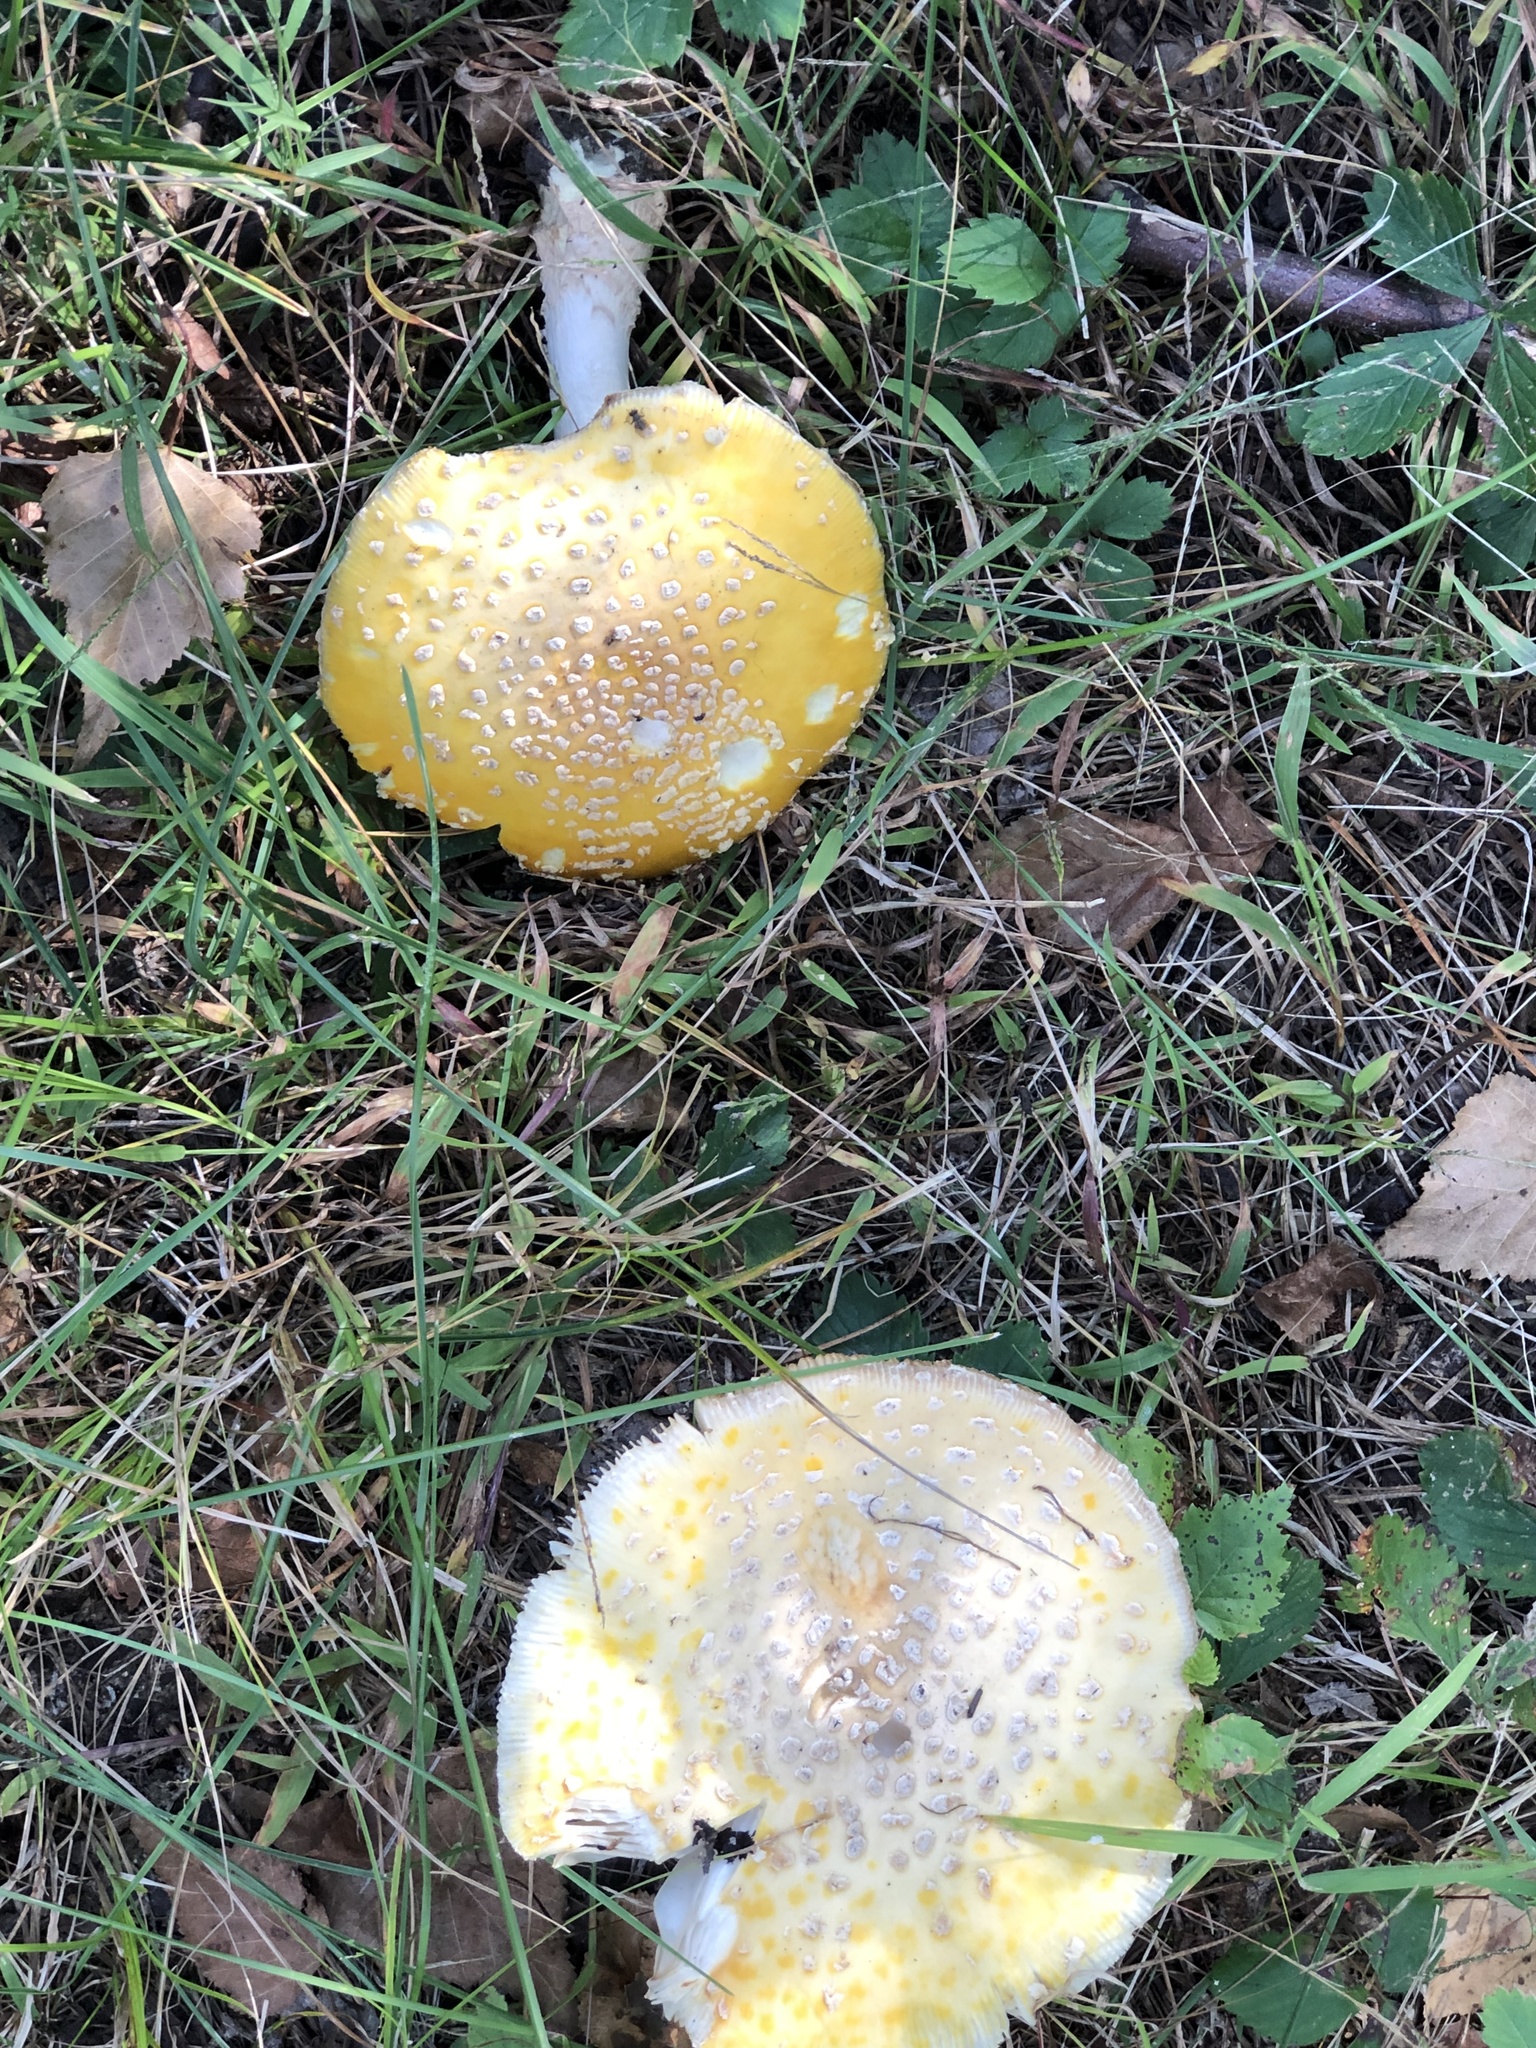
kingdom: Fungi
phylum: Basidiomycota
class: Agaricomycetes
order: Agaricales
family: Amanitaceae
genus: Amanita
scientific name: Amanita muscaria
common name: Fly agaric
